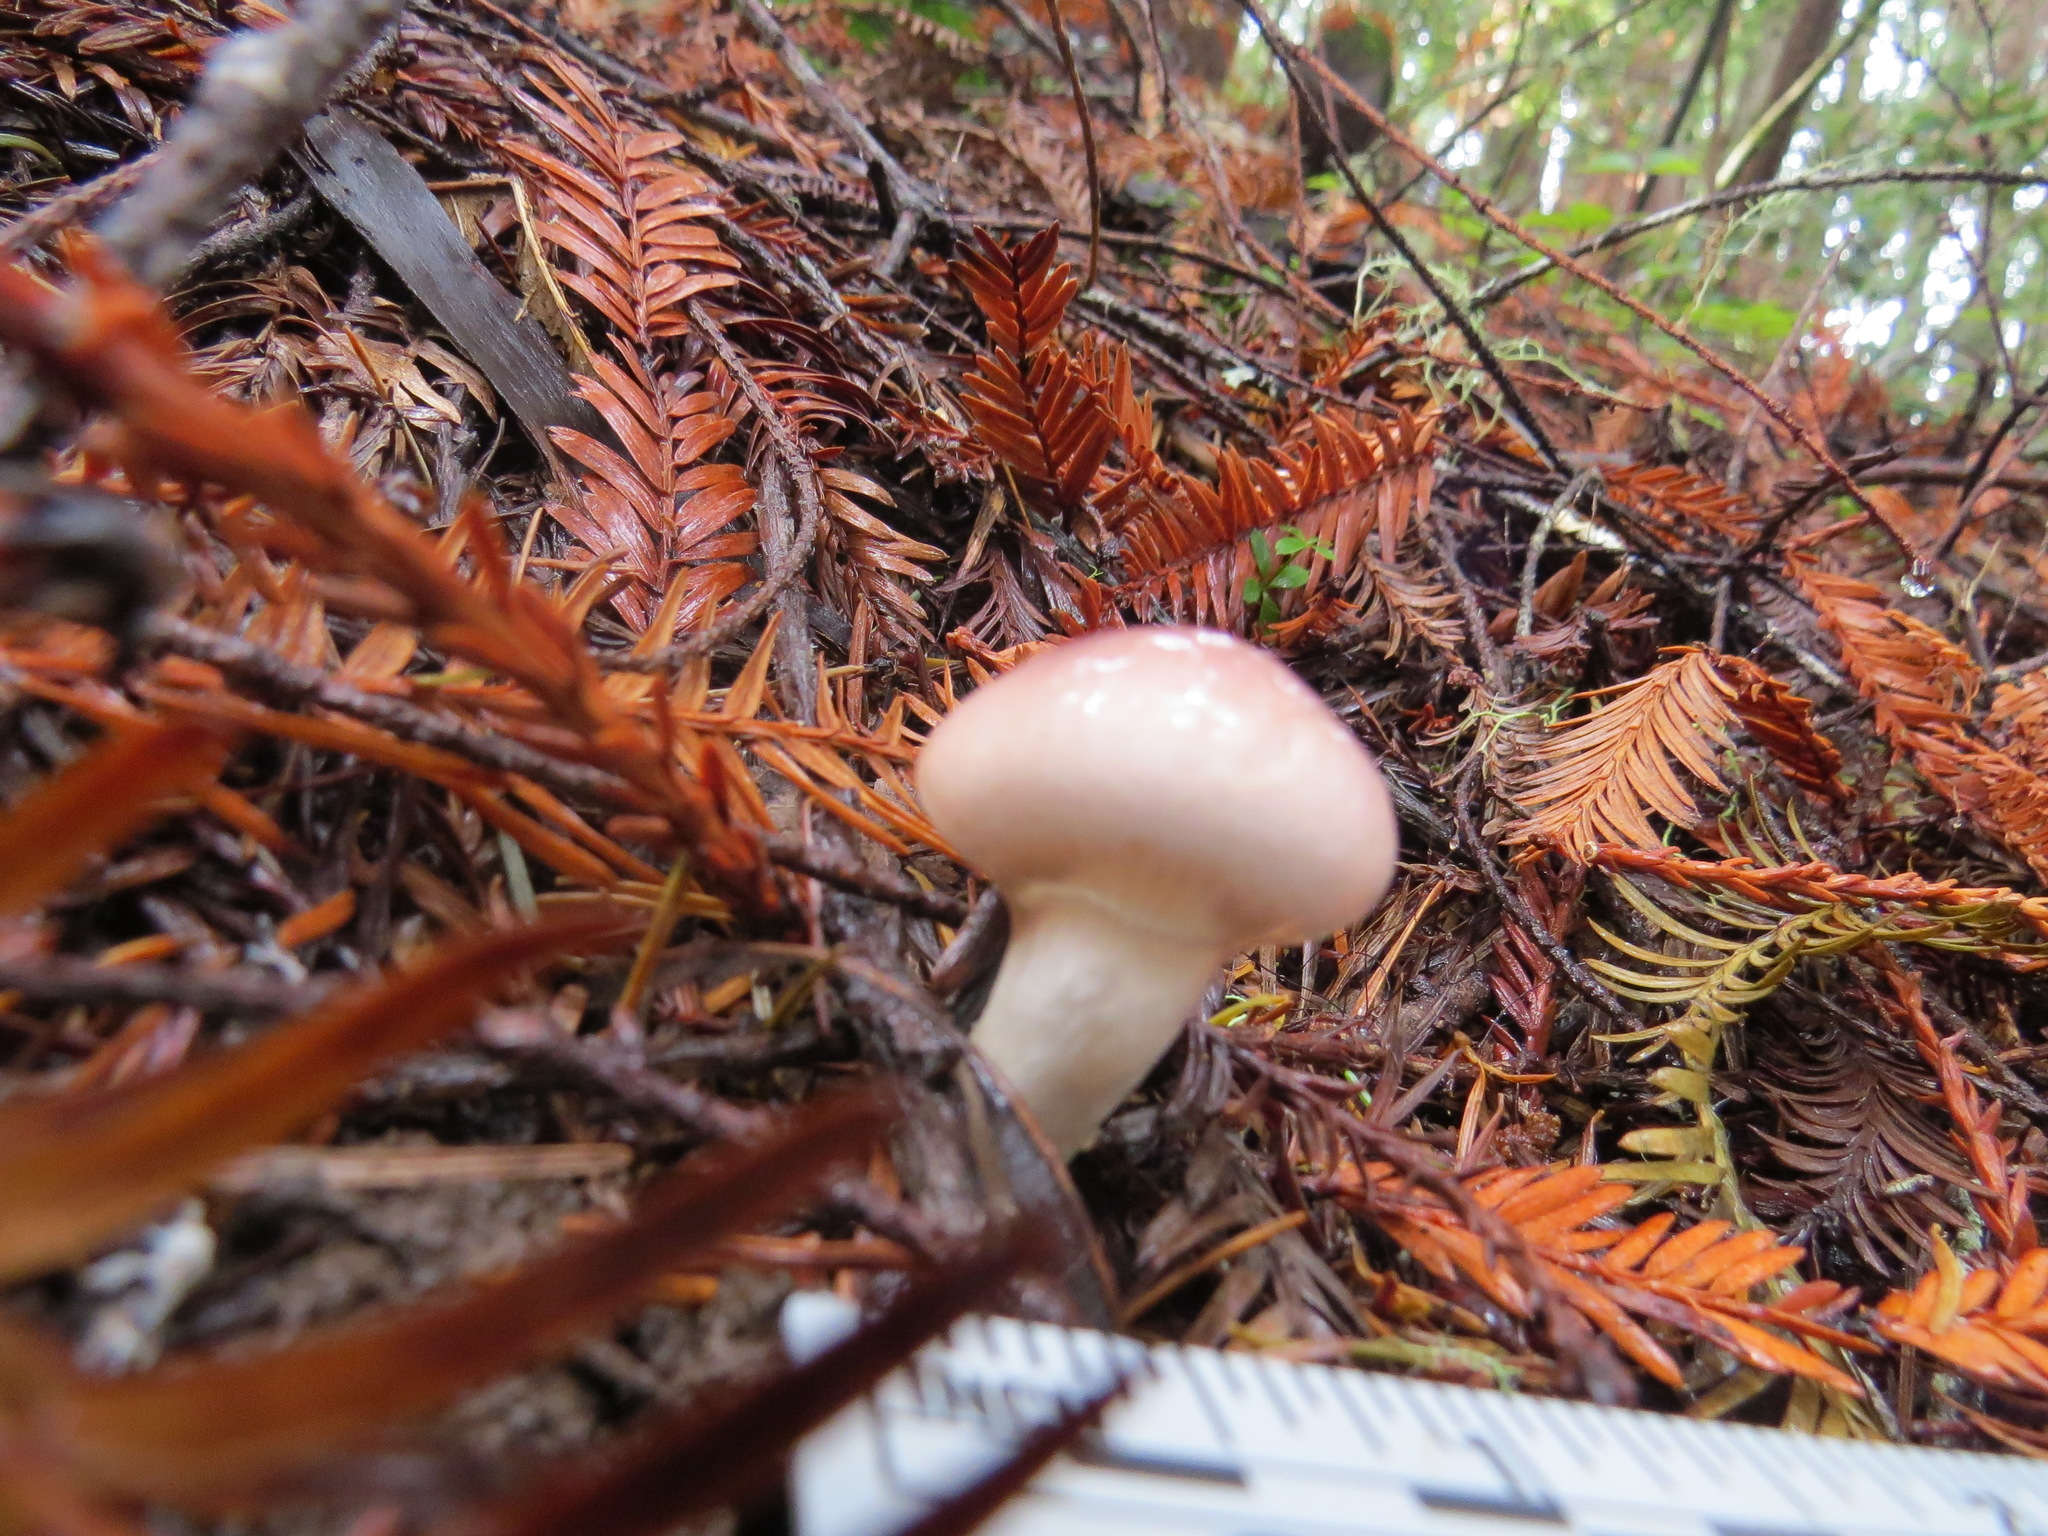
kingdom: Fungi
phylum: Basidiomycota
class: Agaricomycetes
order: Boletales
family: Gomphidiaceae
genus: Gomphidius
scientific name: Gomphidius subroseus
